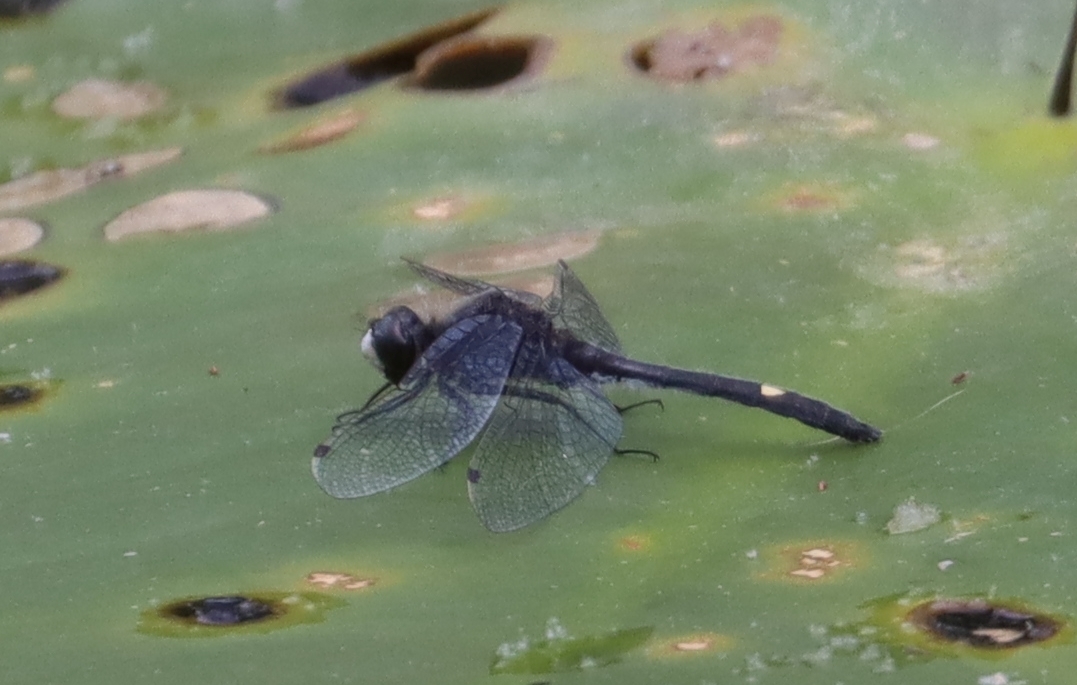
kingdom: Animalia
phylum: Arthropoda
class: Insecta
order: Odonata
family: Libellulidae
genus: Leucorrhinia
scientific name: Leucorrhinia intacta
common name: Dot-tailed whiteface
